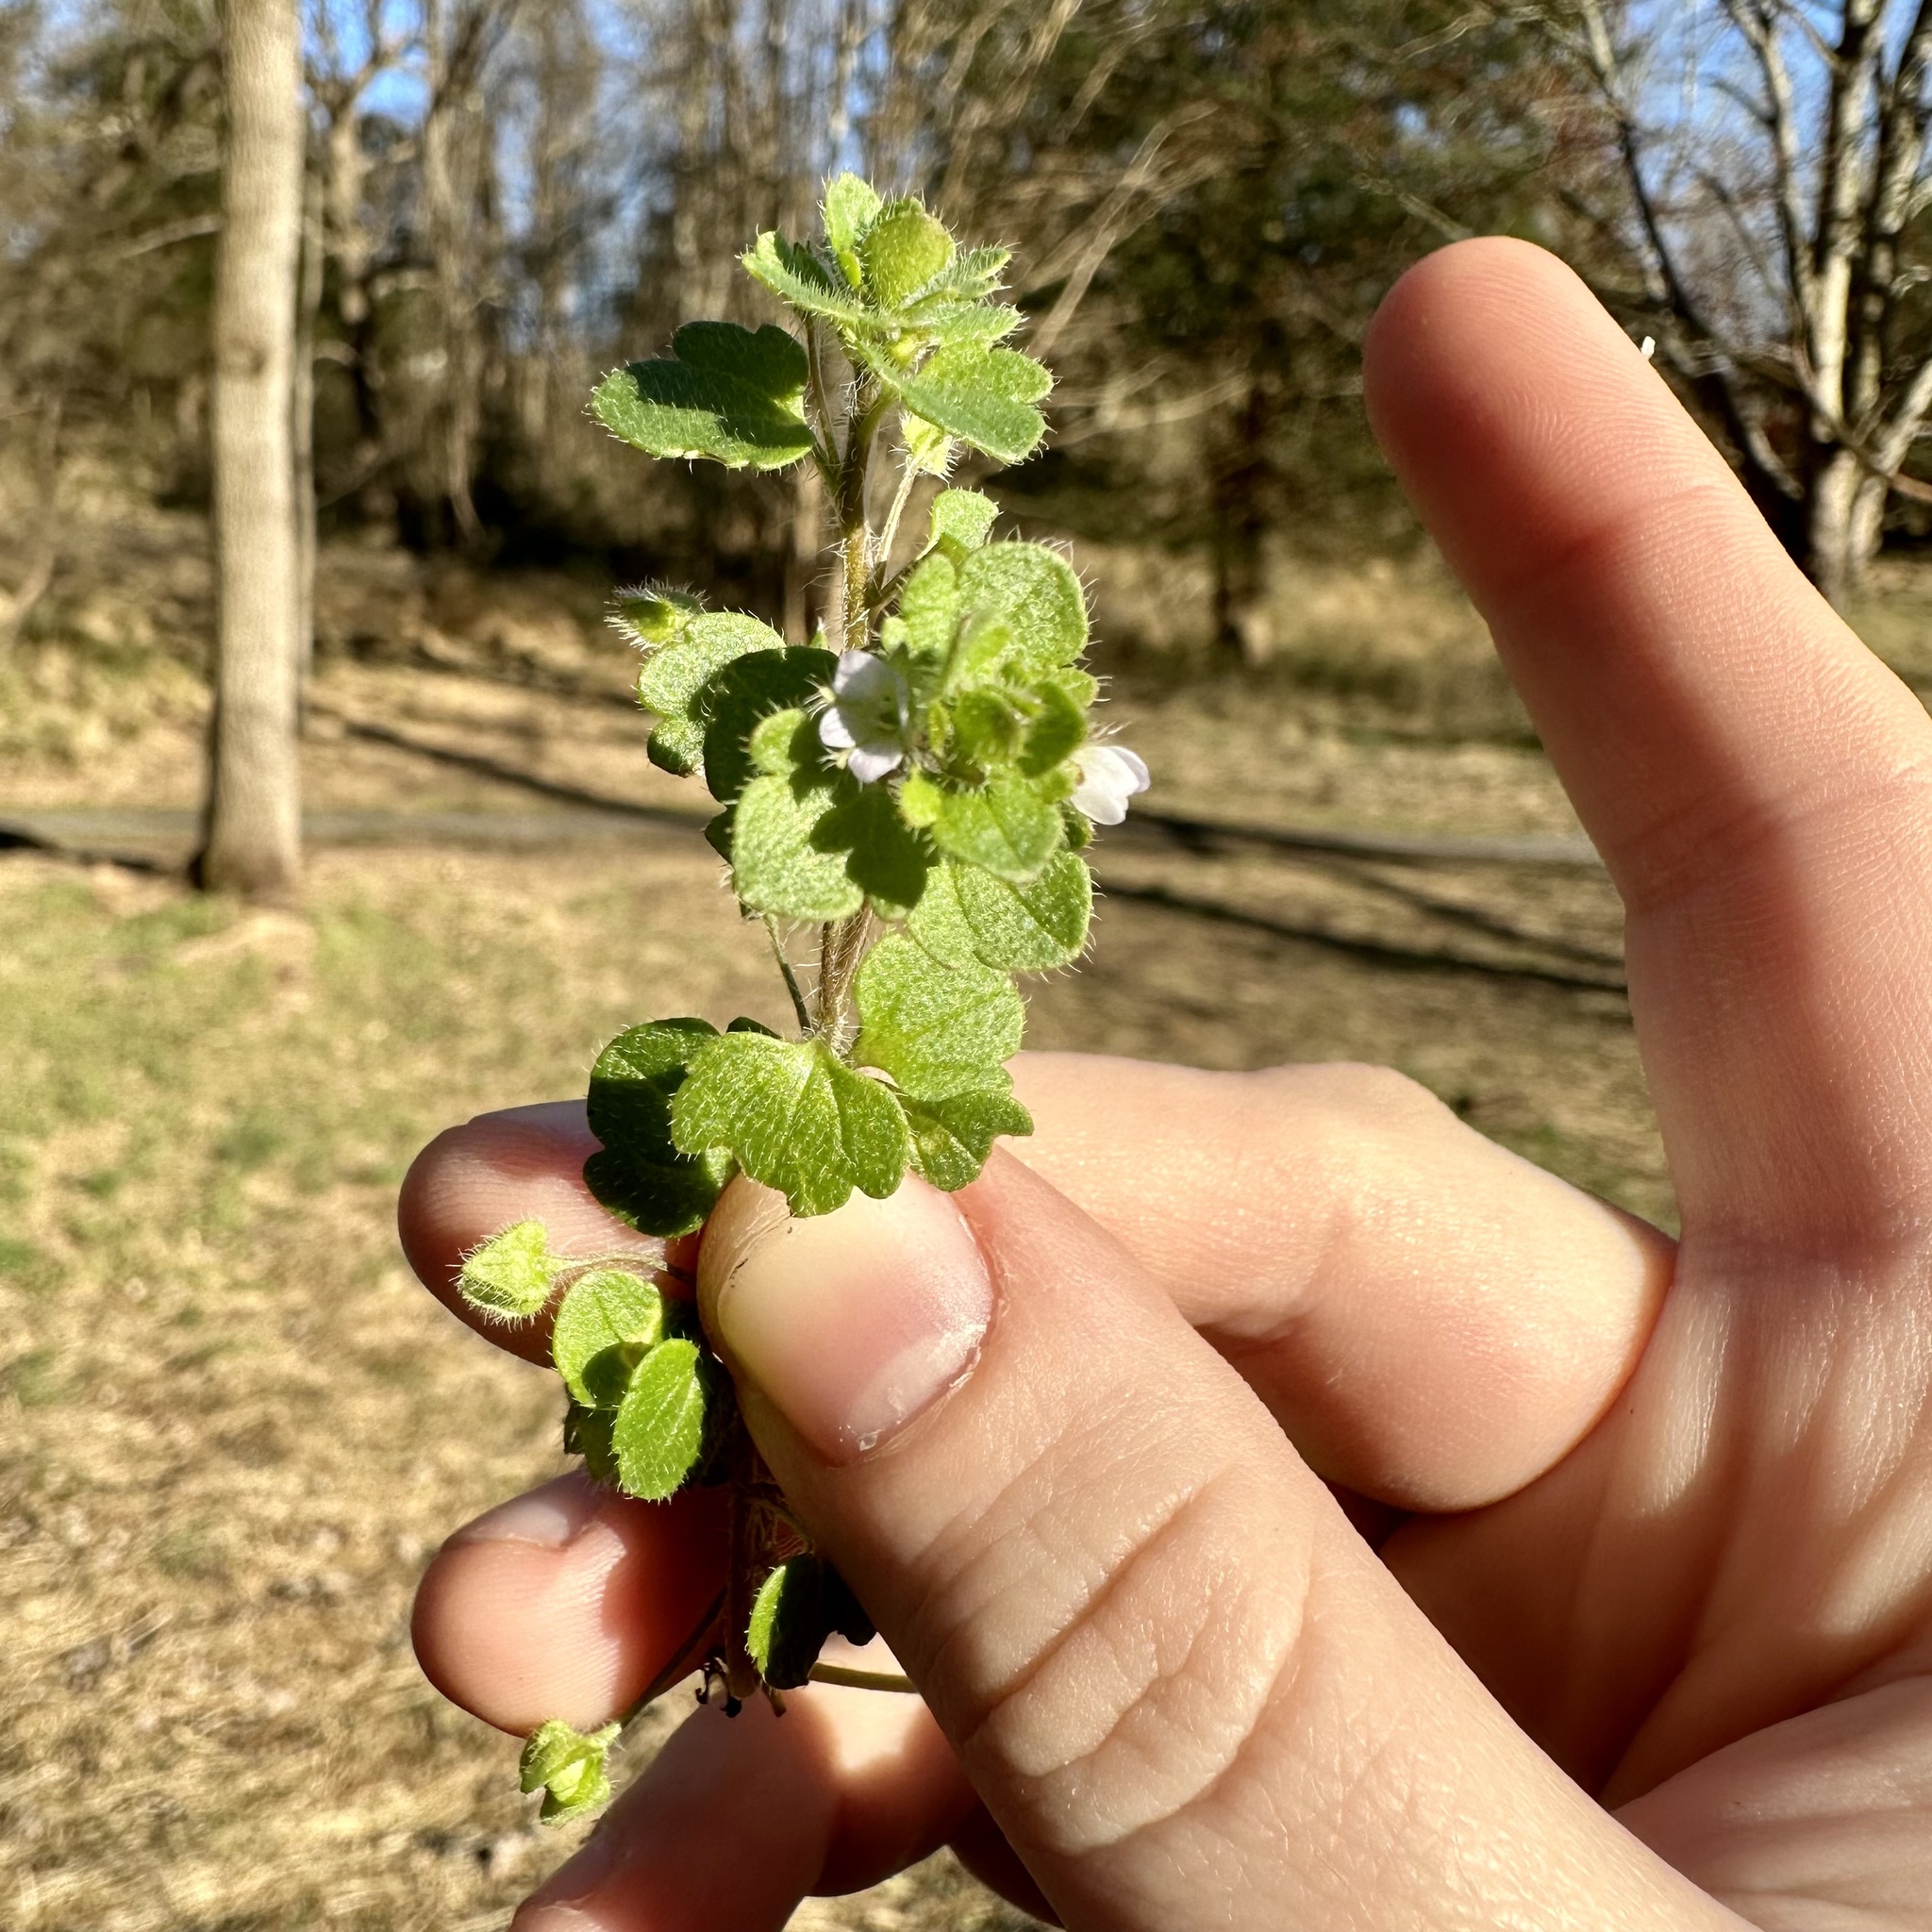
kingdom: Plantae
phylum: Tracheophyta
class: Magnoliopsida
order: Lamiales
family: Plantaginaceae
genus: Veronica
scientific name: Veronica sublobata
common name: False ivy-leaved speedwell
